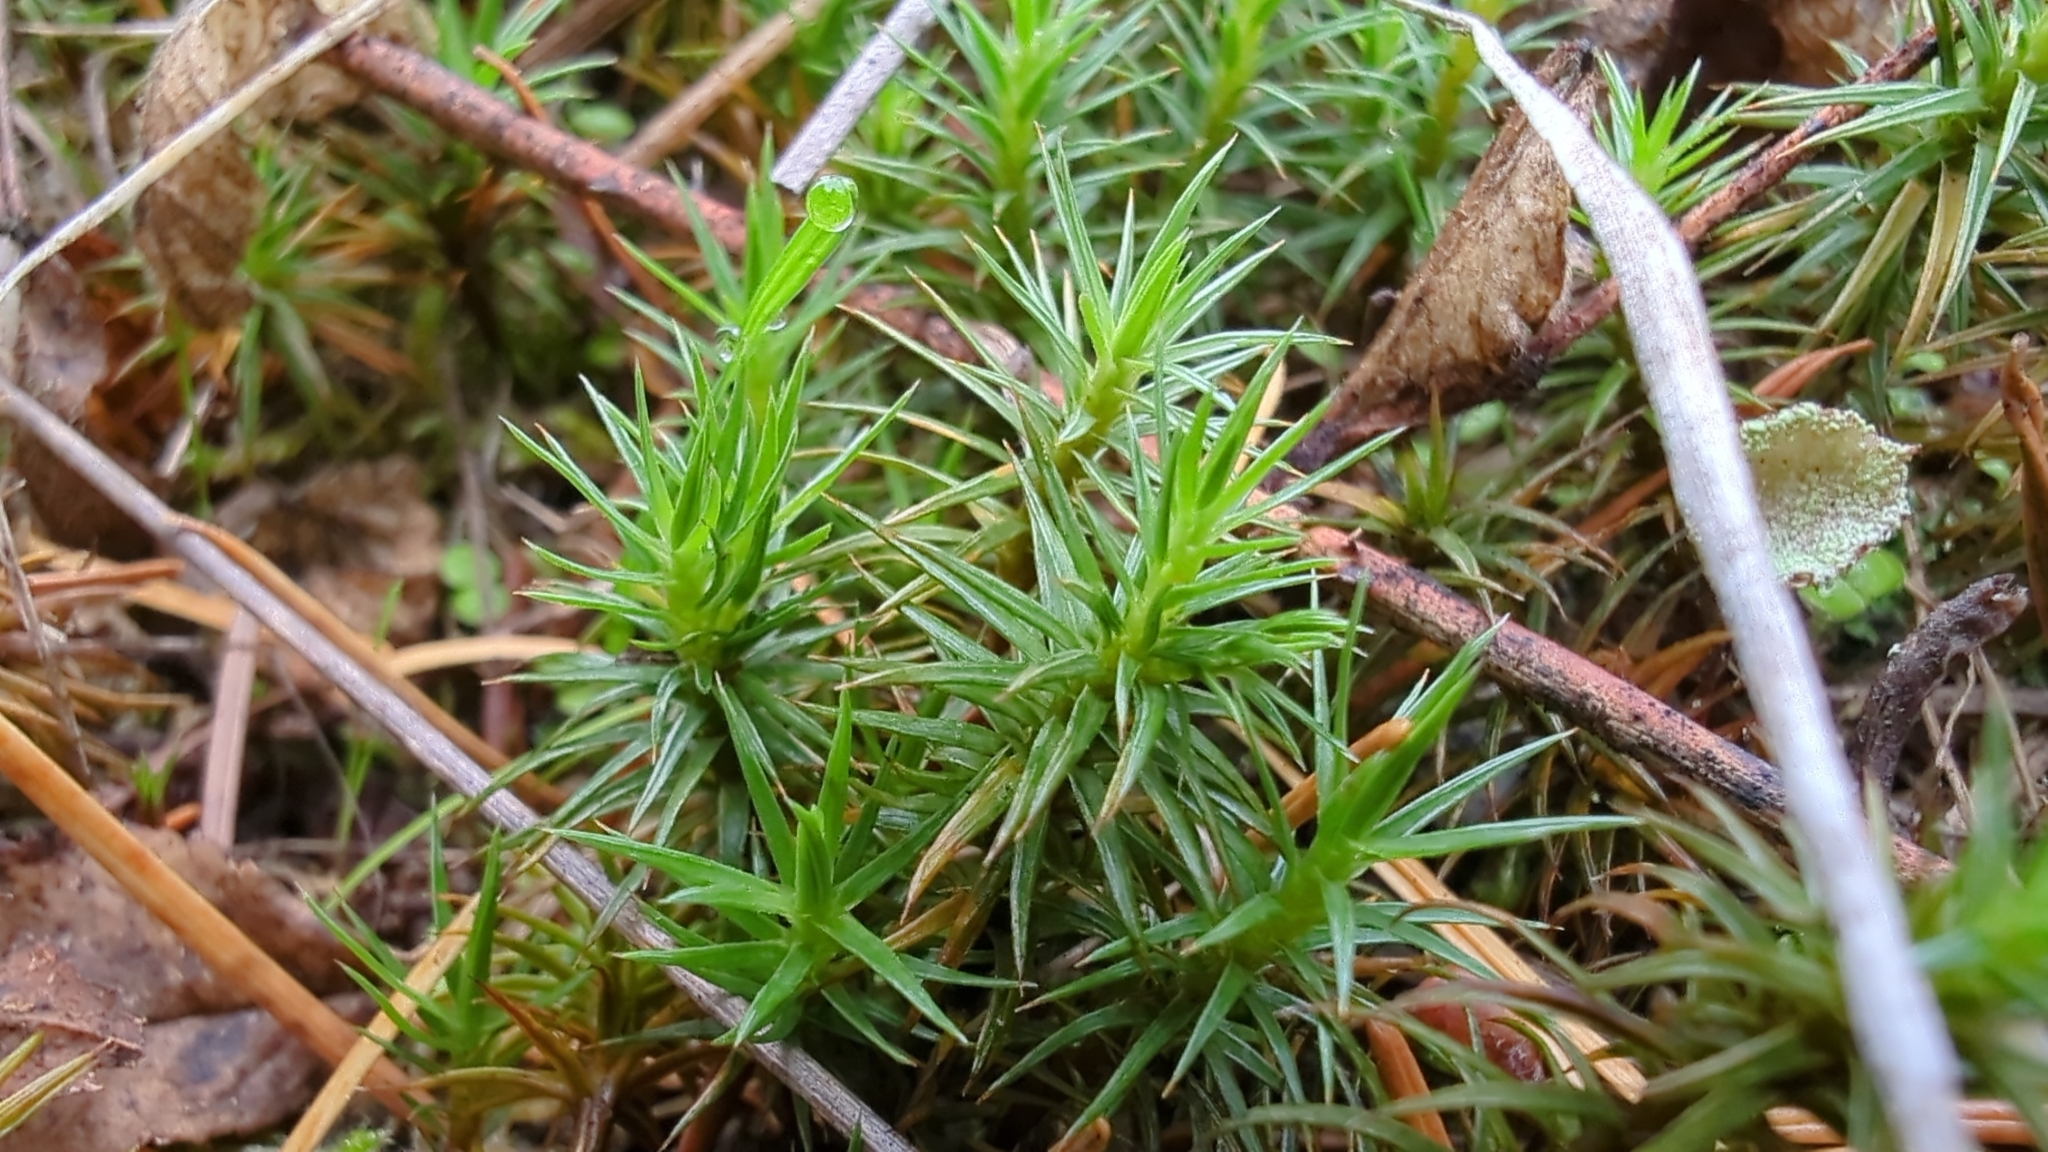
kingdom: Plantae
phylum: Bryophyta
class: Polytrichopsida
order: Polytrichales
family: Polytrichaceae
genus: Polytrichum
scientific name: Polytrichum juniperinum
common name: Juniper haircap moss
